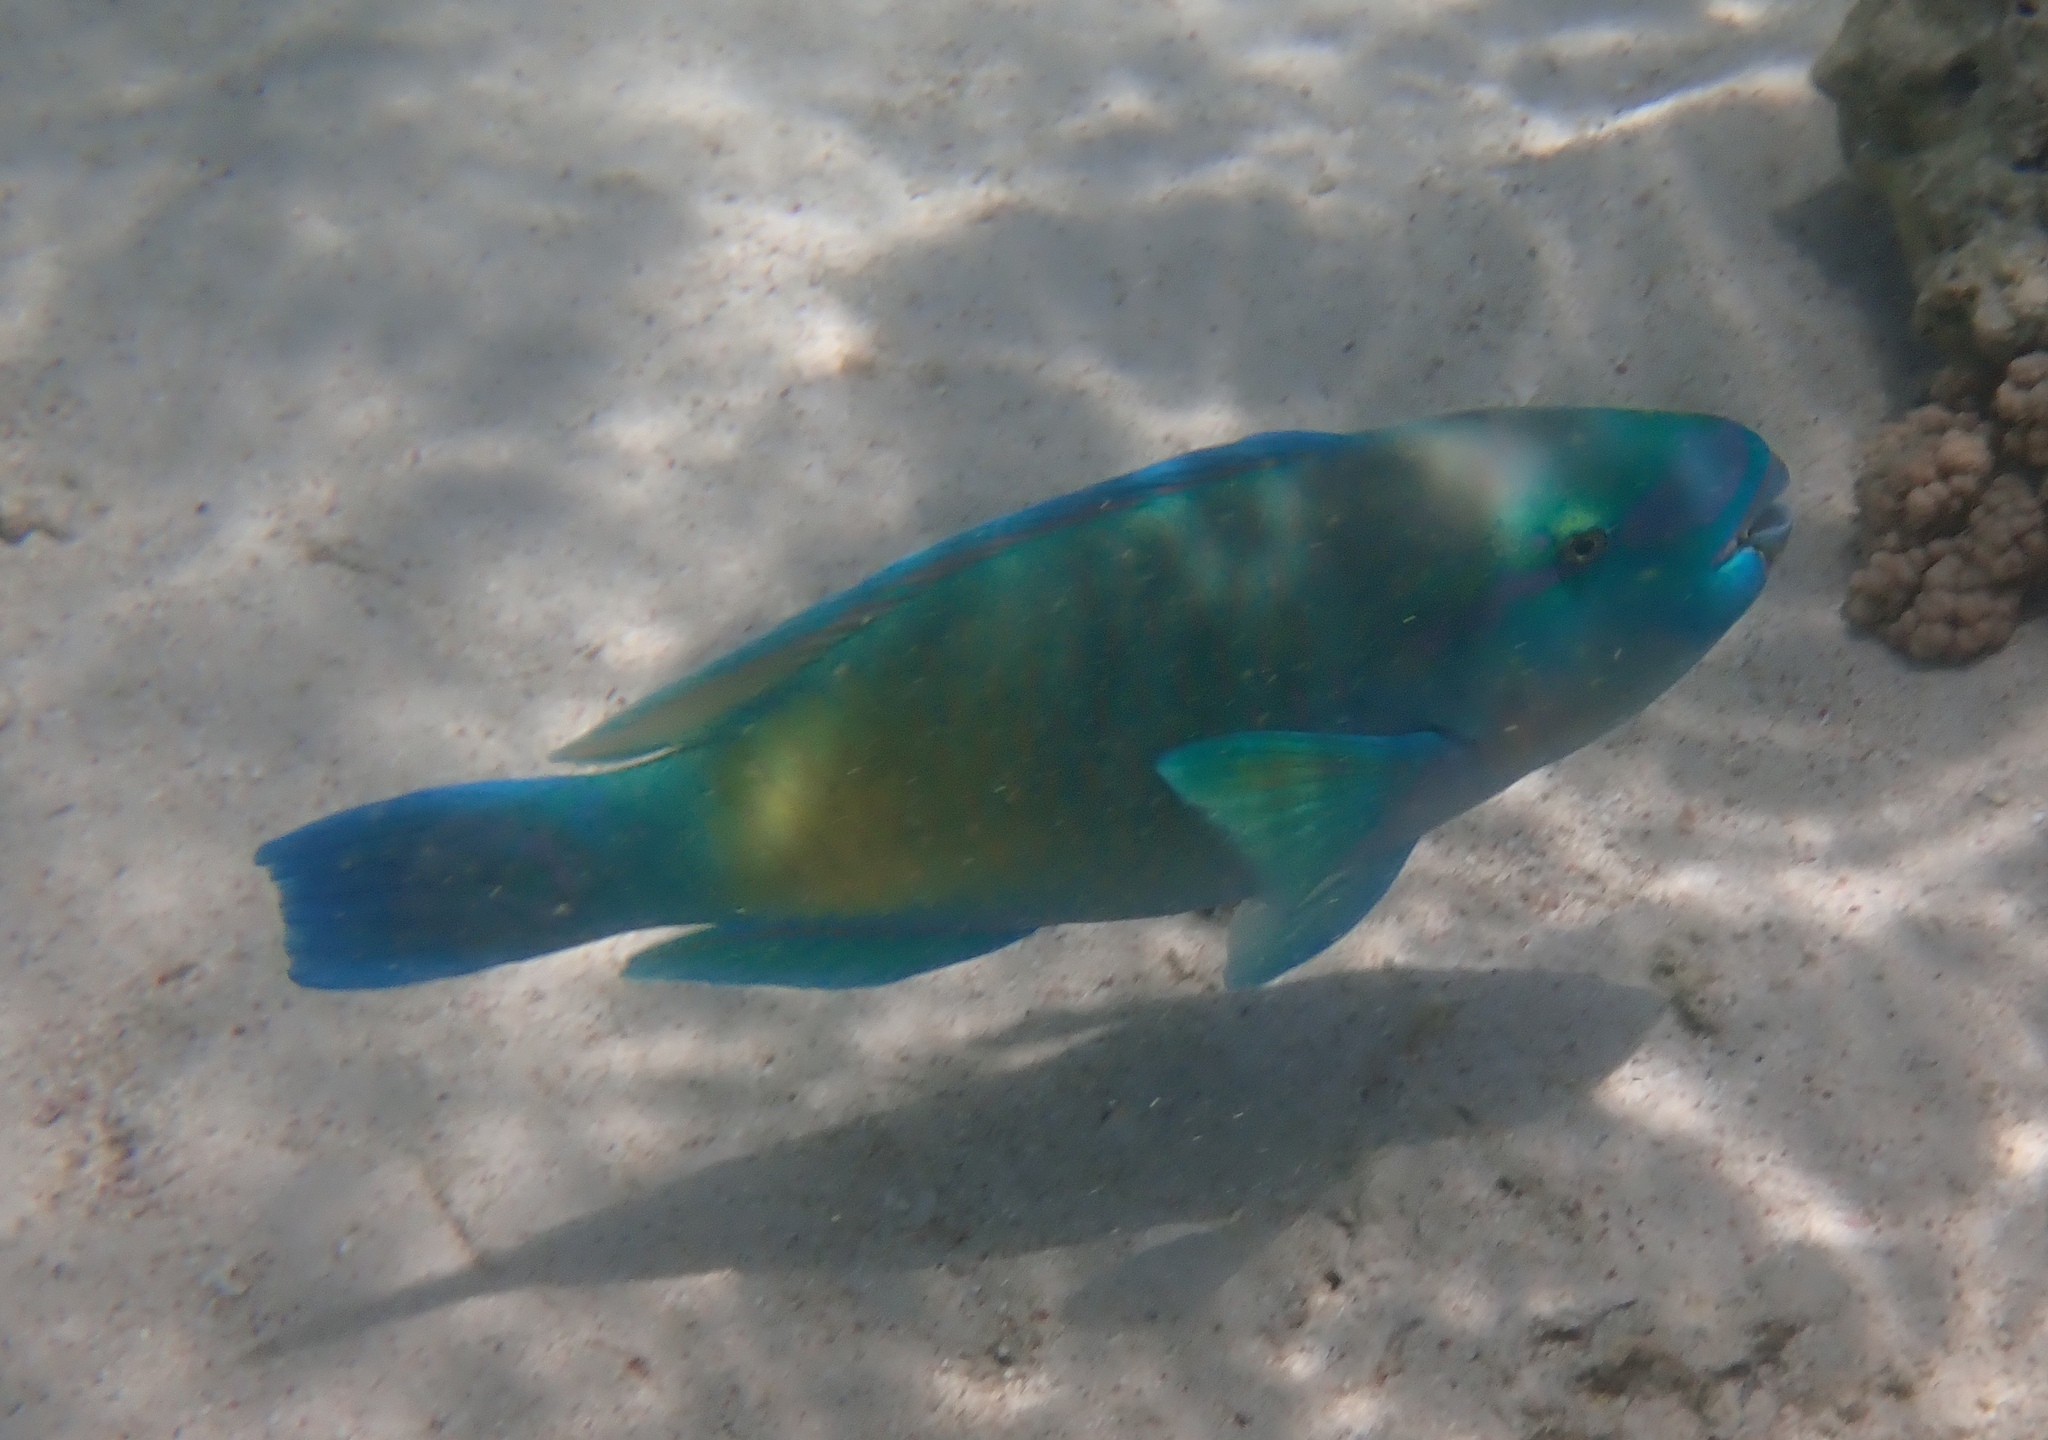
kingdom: Animalia
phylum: Chordata
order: Perciformes
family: Scaridae
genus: Chlorurus
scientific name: Chlorurus sordidus
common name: Bullethead parrotfish
